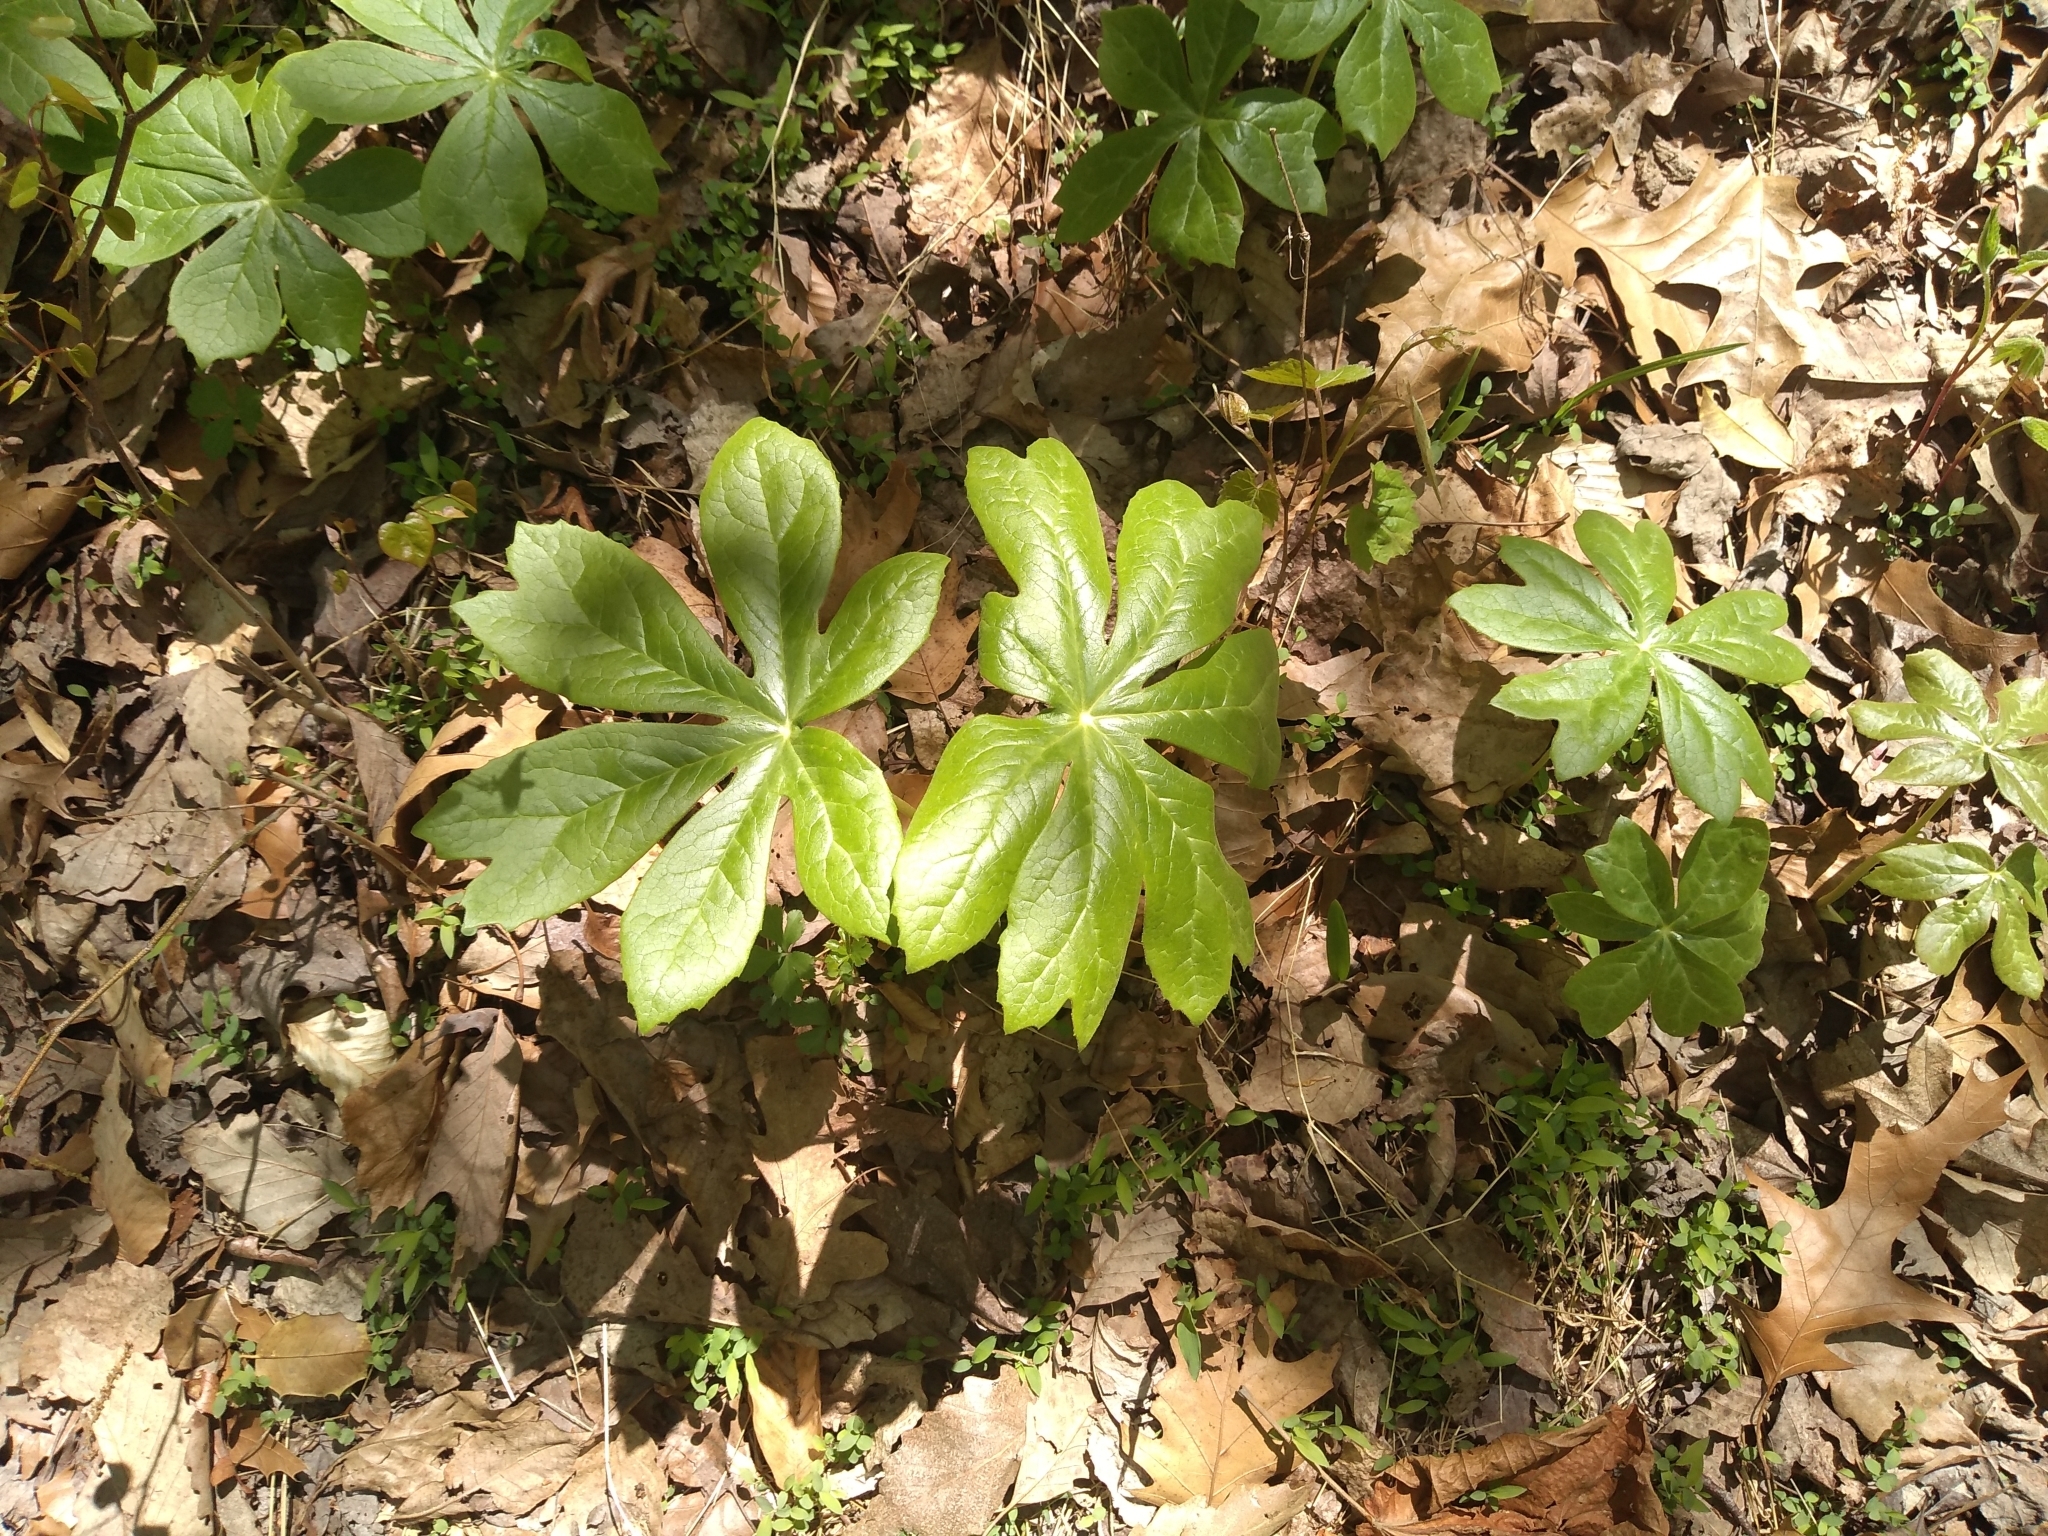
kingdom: Plantae
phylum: Tracheophyta
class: Magnoliopsida
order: Ranunculales
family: Berberidaceae
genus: Podophyllum
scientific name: Podophyllum peltatum
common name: Wild mandrake
